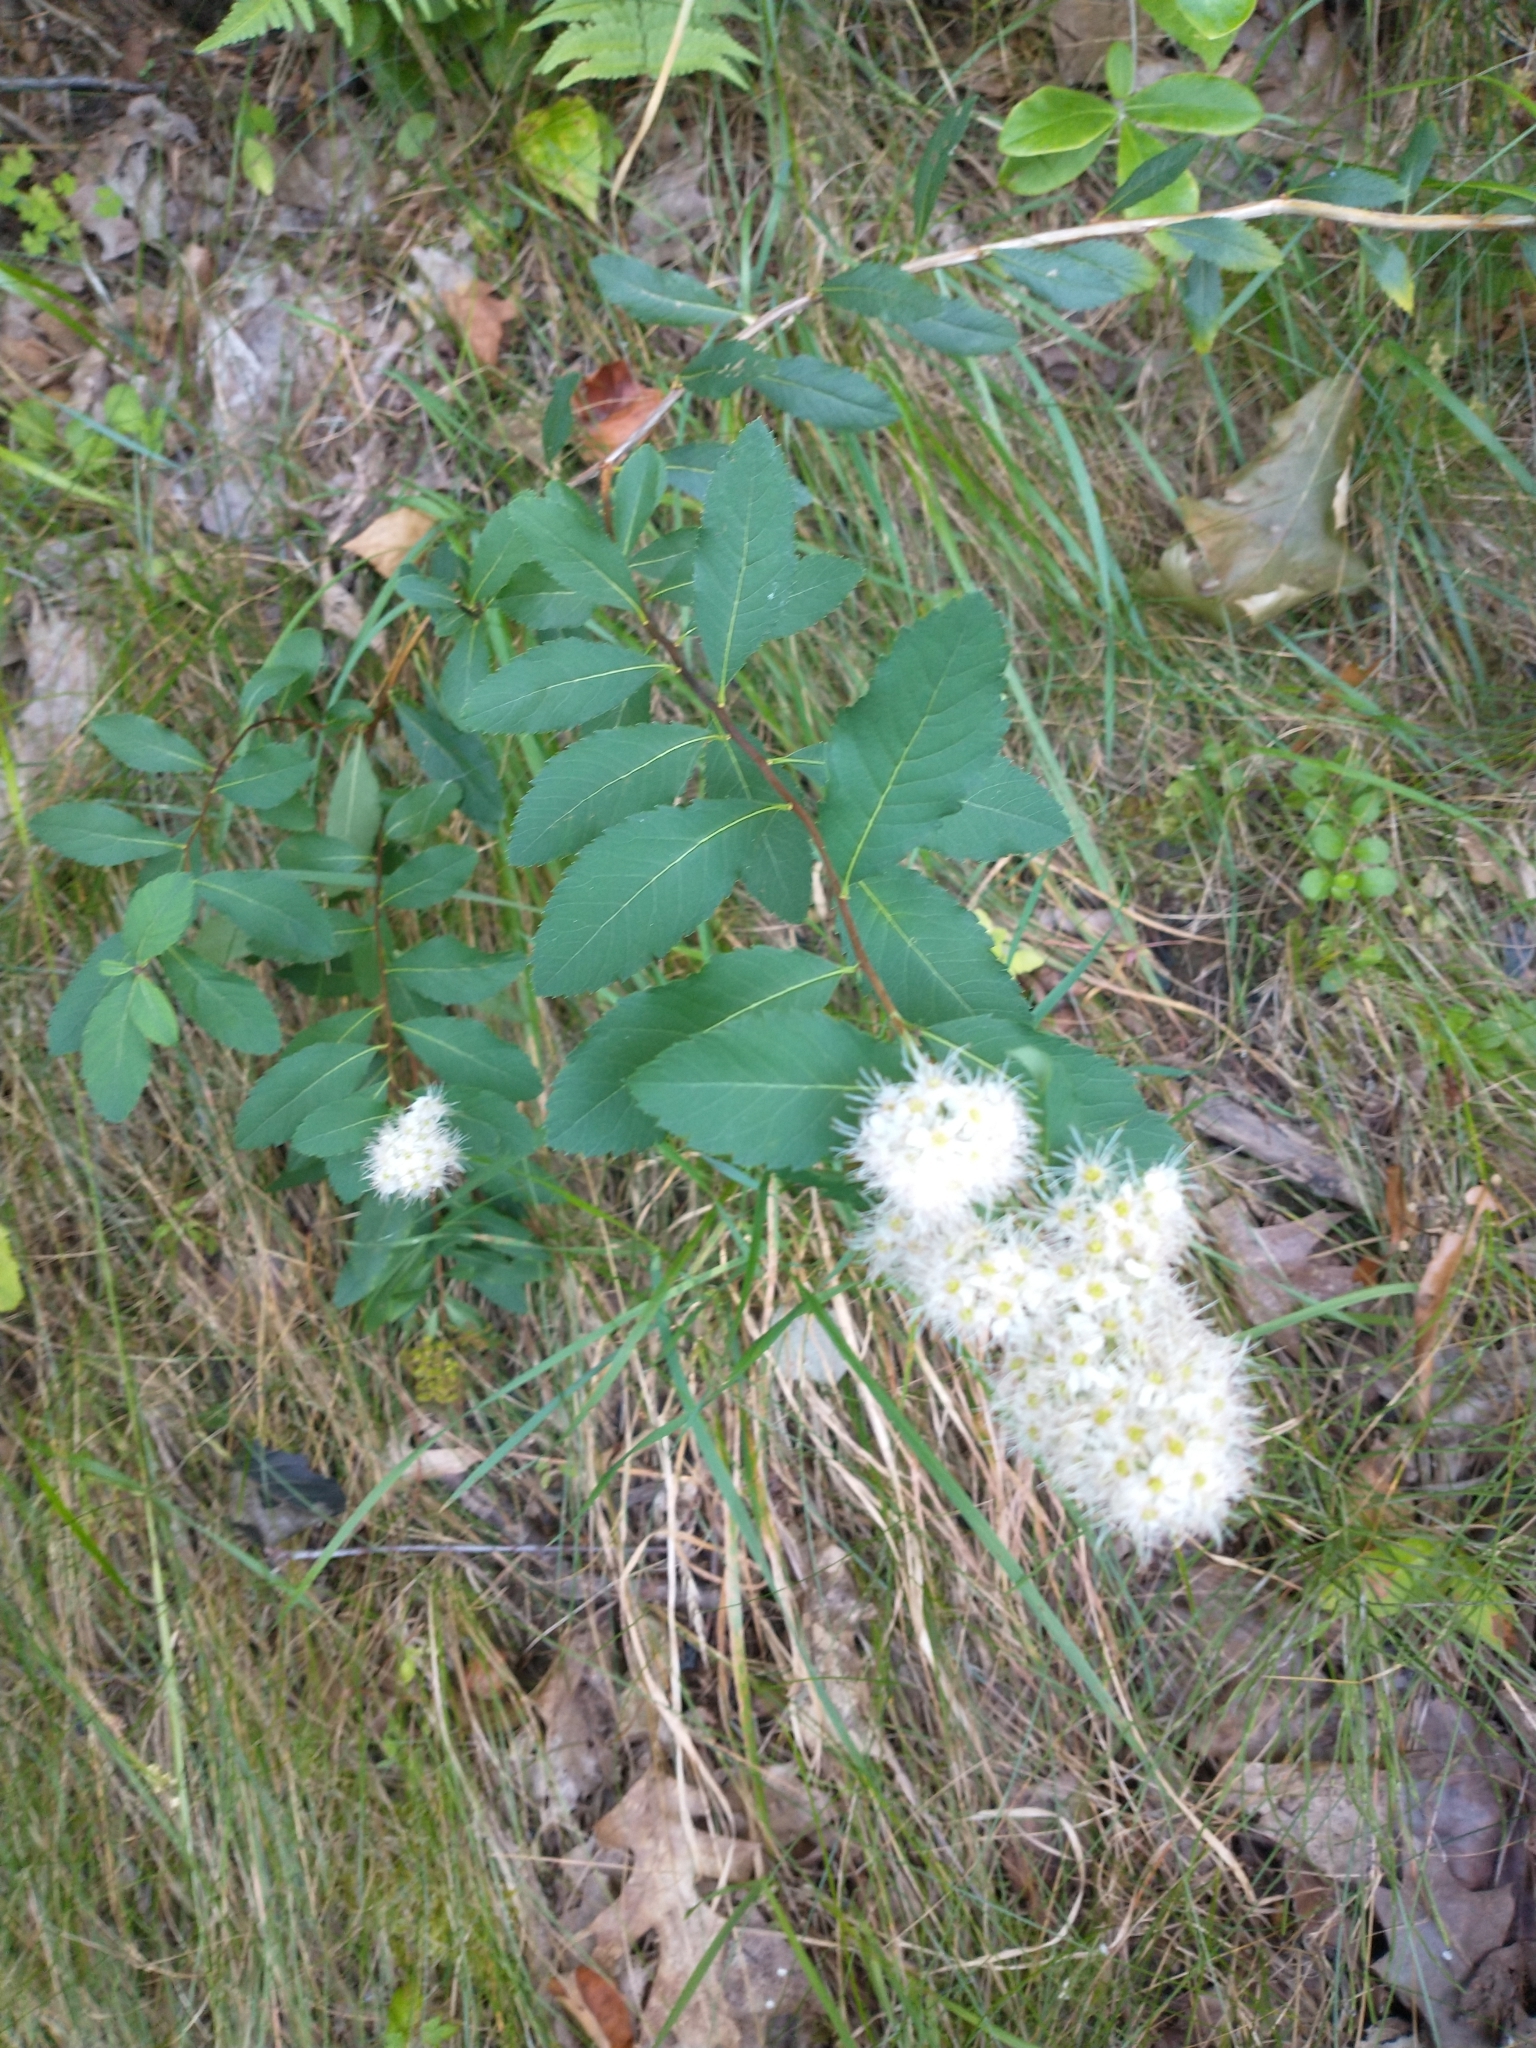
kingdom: Plantae
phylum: Tracheophyta
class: Magnoliopsida
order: Rosales
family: Rosaceae
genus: Spiraea
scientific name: Spiraea alba
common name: Pale bridewort
